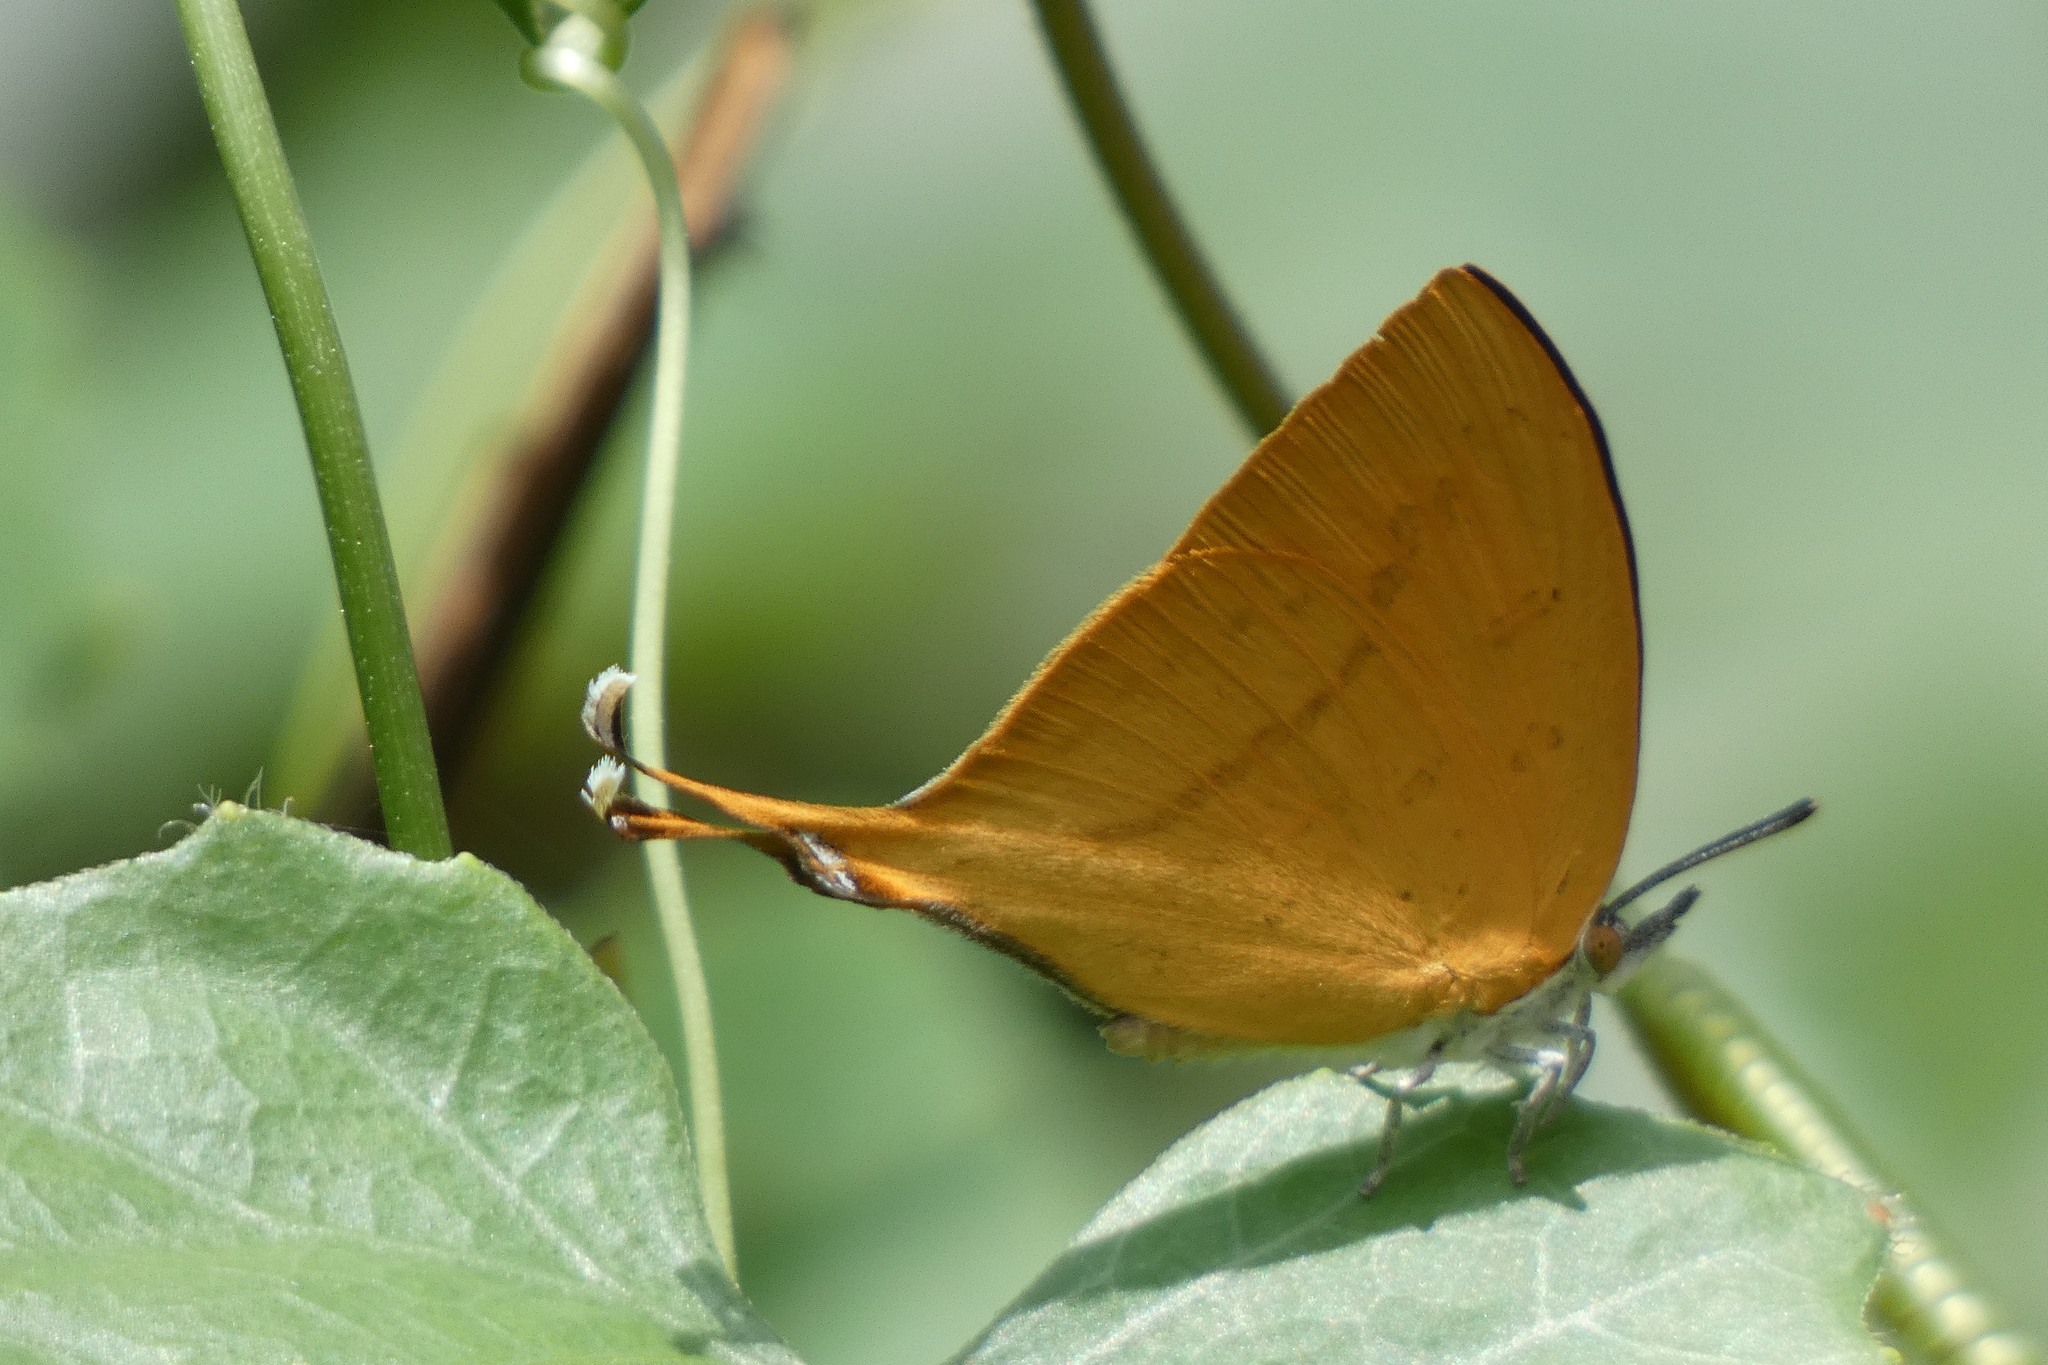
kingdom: Animalia
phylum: Arthropoda
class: Insecta
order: Lepidoptera
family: Lycaenidae
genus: Loxura
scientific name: Loxura atymnus
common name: Common yamfly
